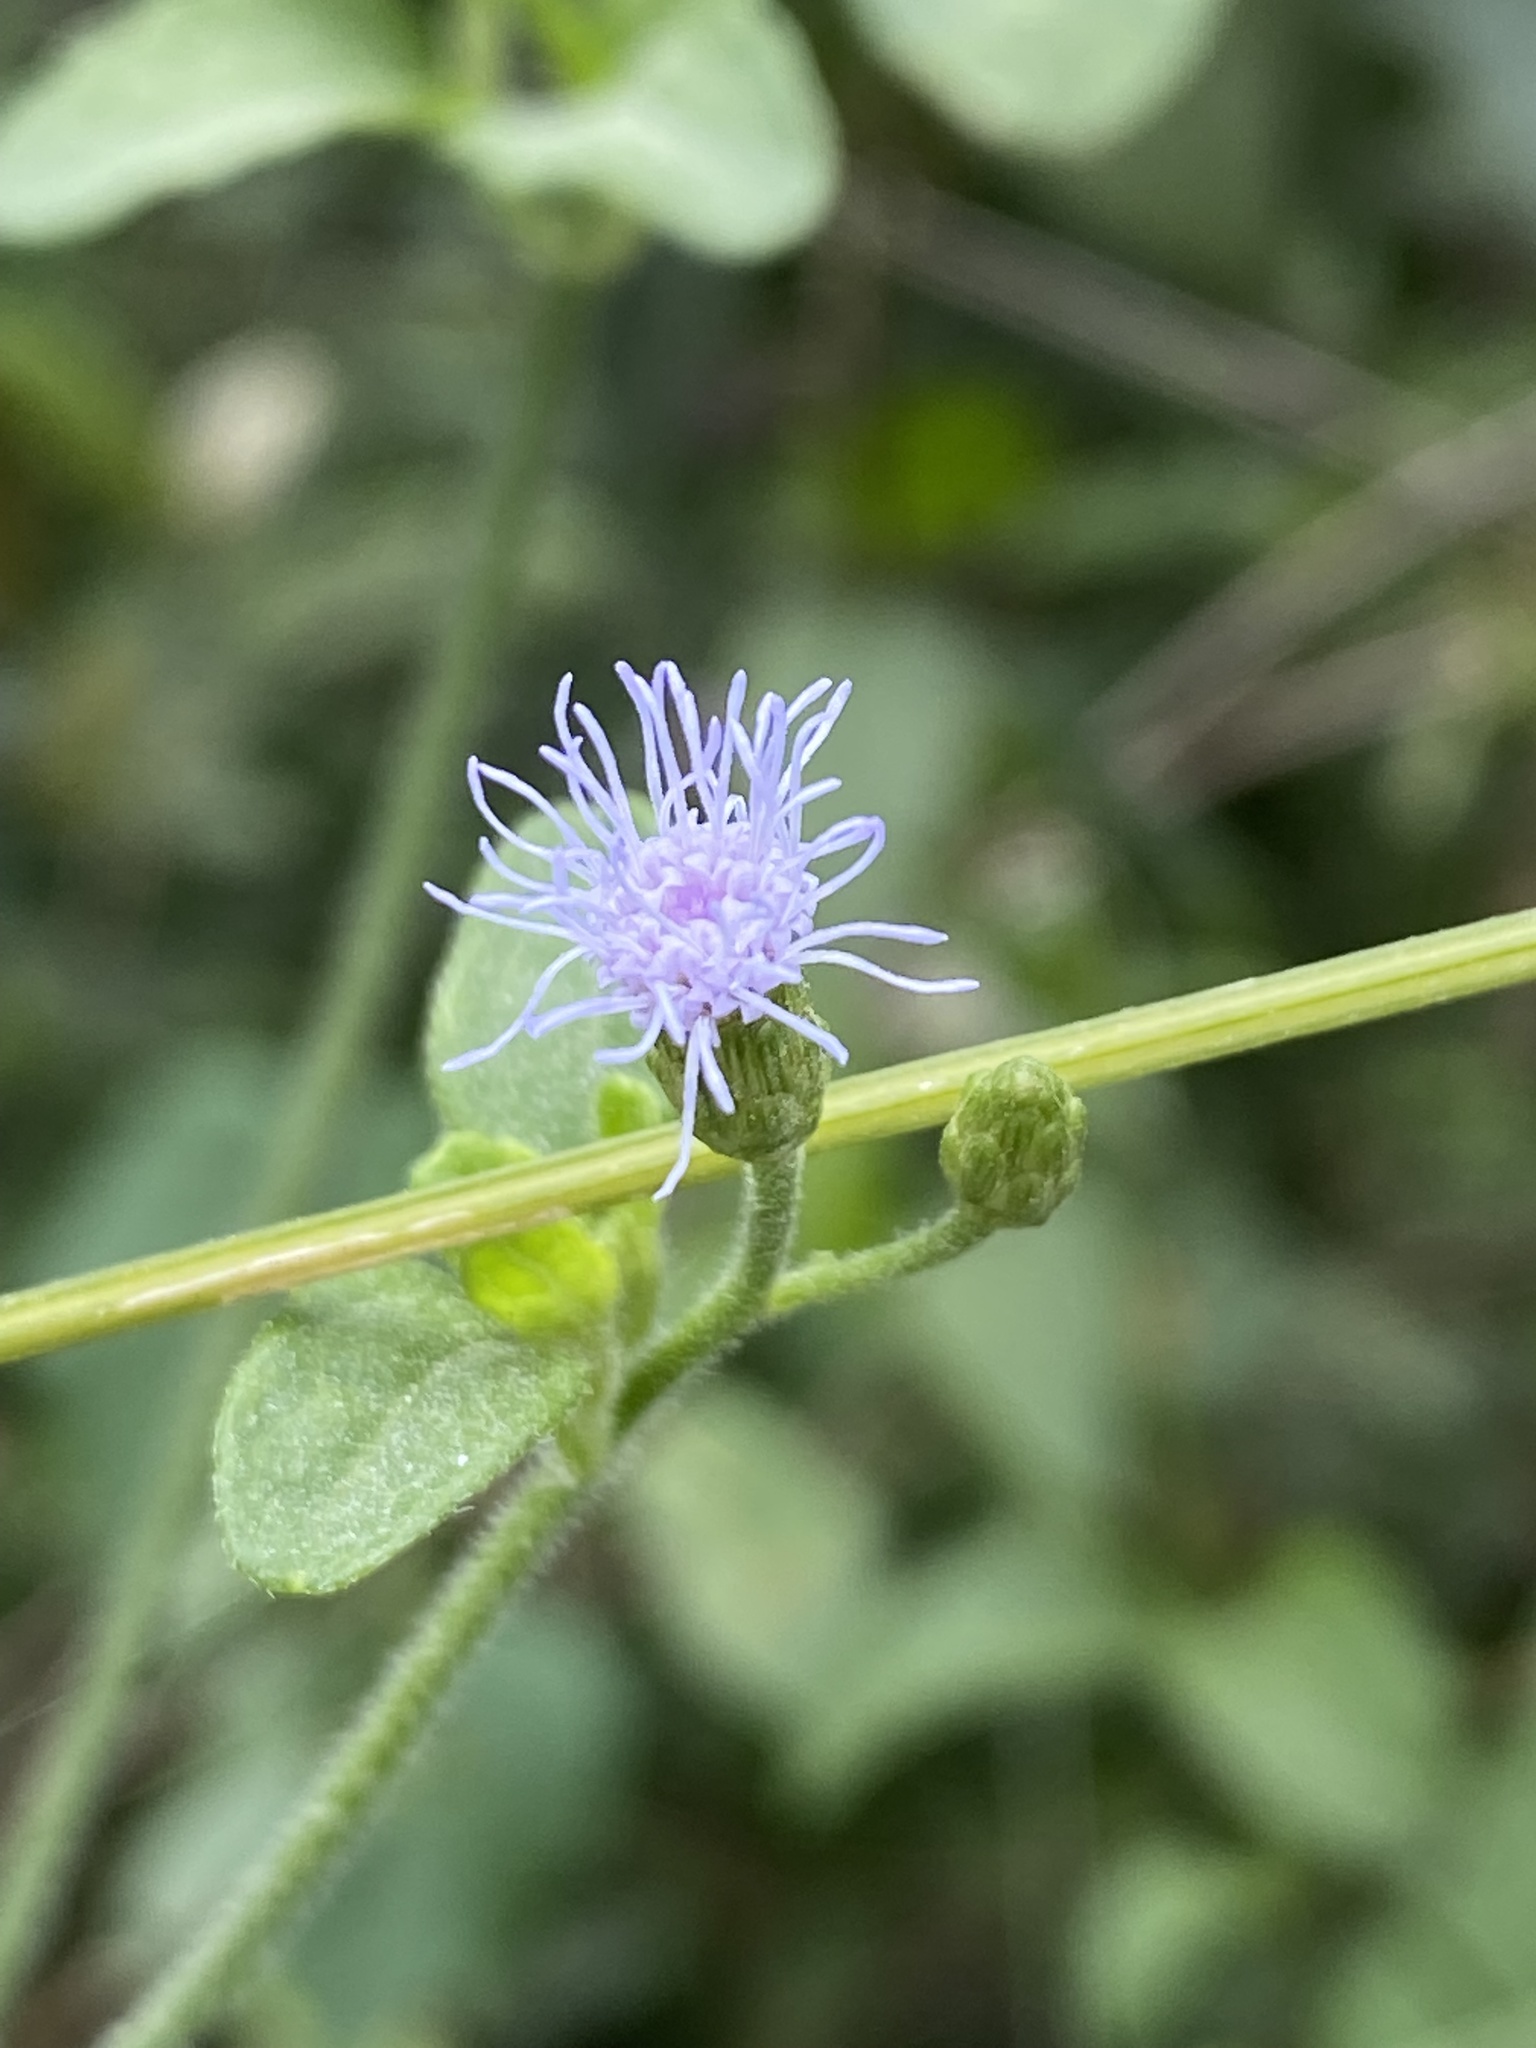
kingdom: Plantae
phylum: Tracheophyta
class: Magnoliopsida
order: Asterales
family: Asteraceae
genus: Chromolaena
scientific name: Chromolaena odorata
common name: Siamweed
